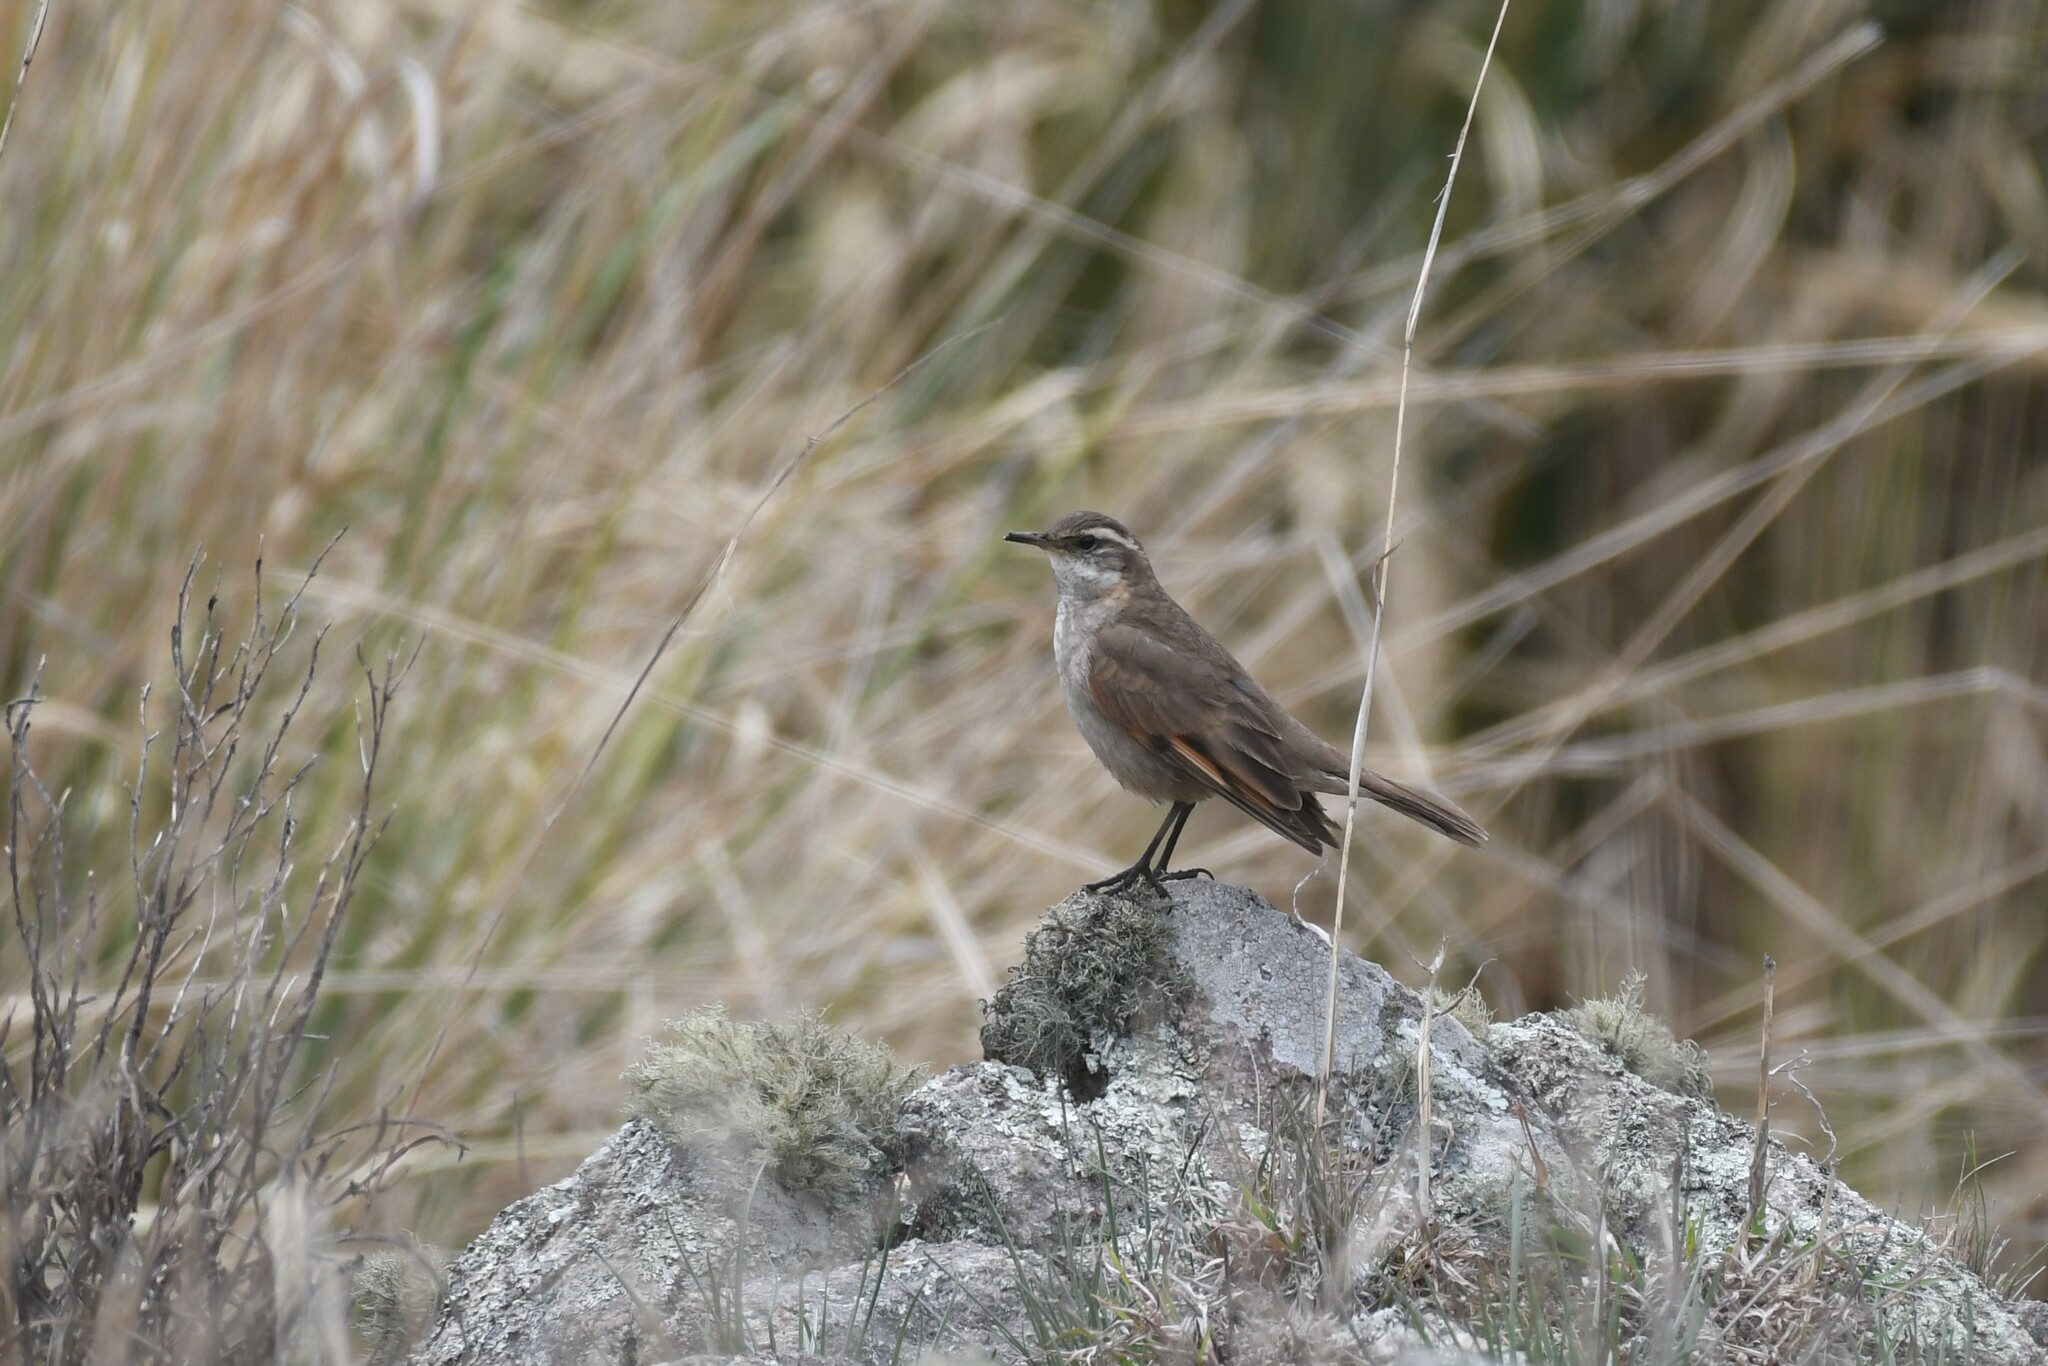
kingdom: Animalia
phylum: Chordata
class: Aves
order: Passeriformes
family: Furnariidae
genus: Cinclodes
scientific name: Cinclodes comechingonus
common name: Cordoba cinclodes
